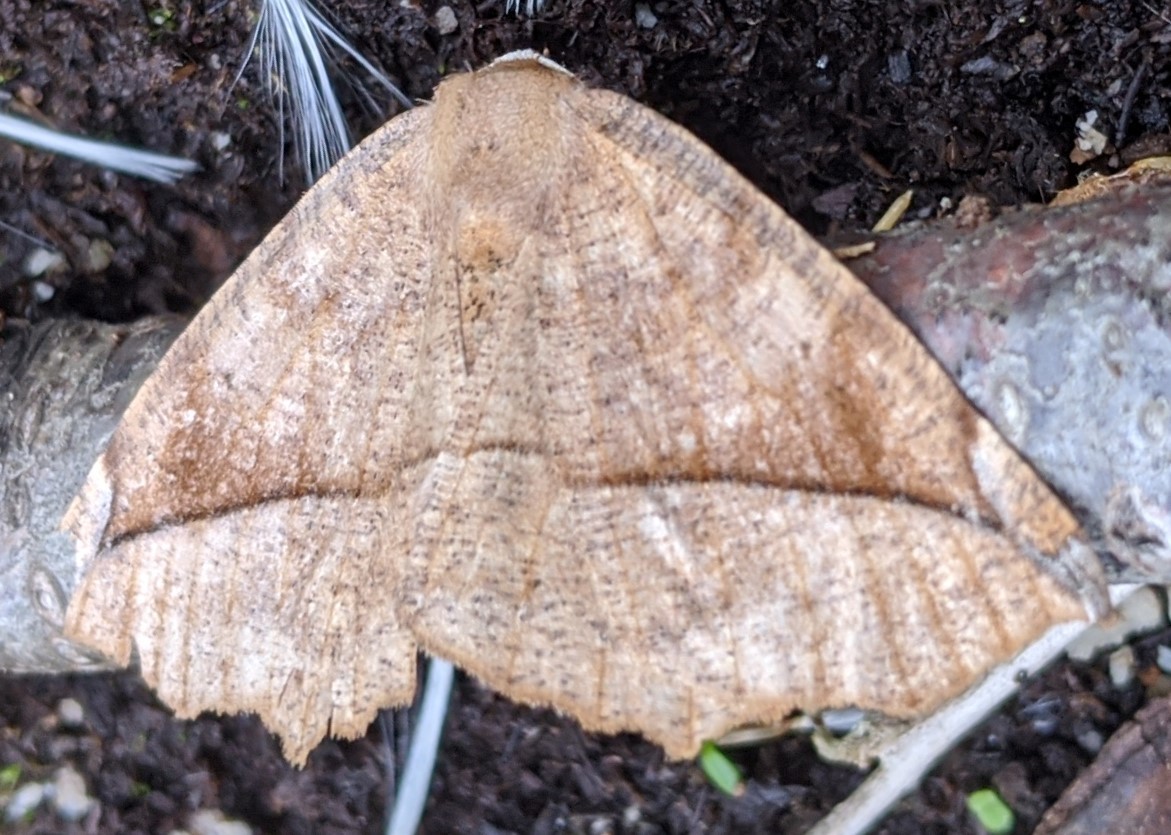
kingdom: Animalia
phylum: Arthropoda
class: Insecta
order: Lepidoptera
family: Geometridae
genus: Eutrapela
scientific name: Eutrapela clemataria
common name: Curved-toothed geometer
